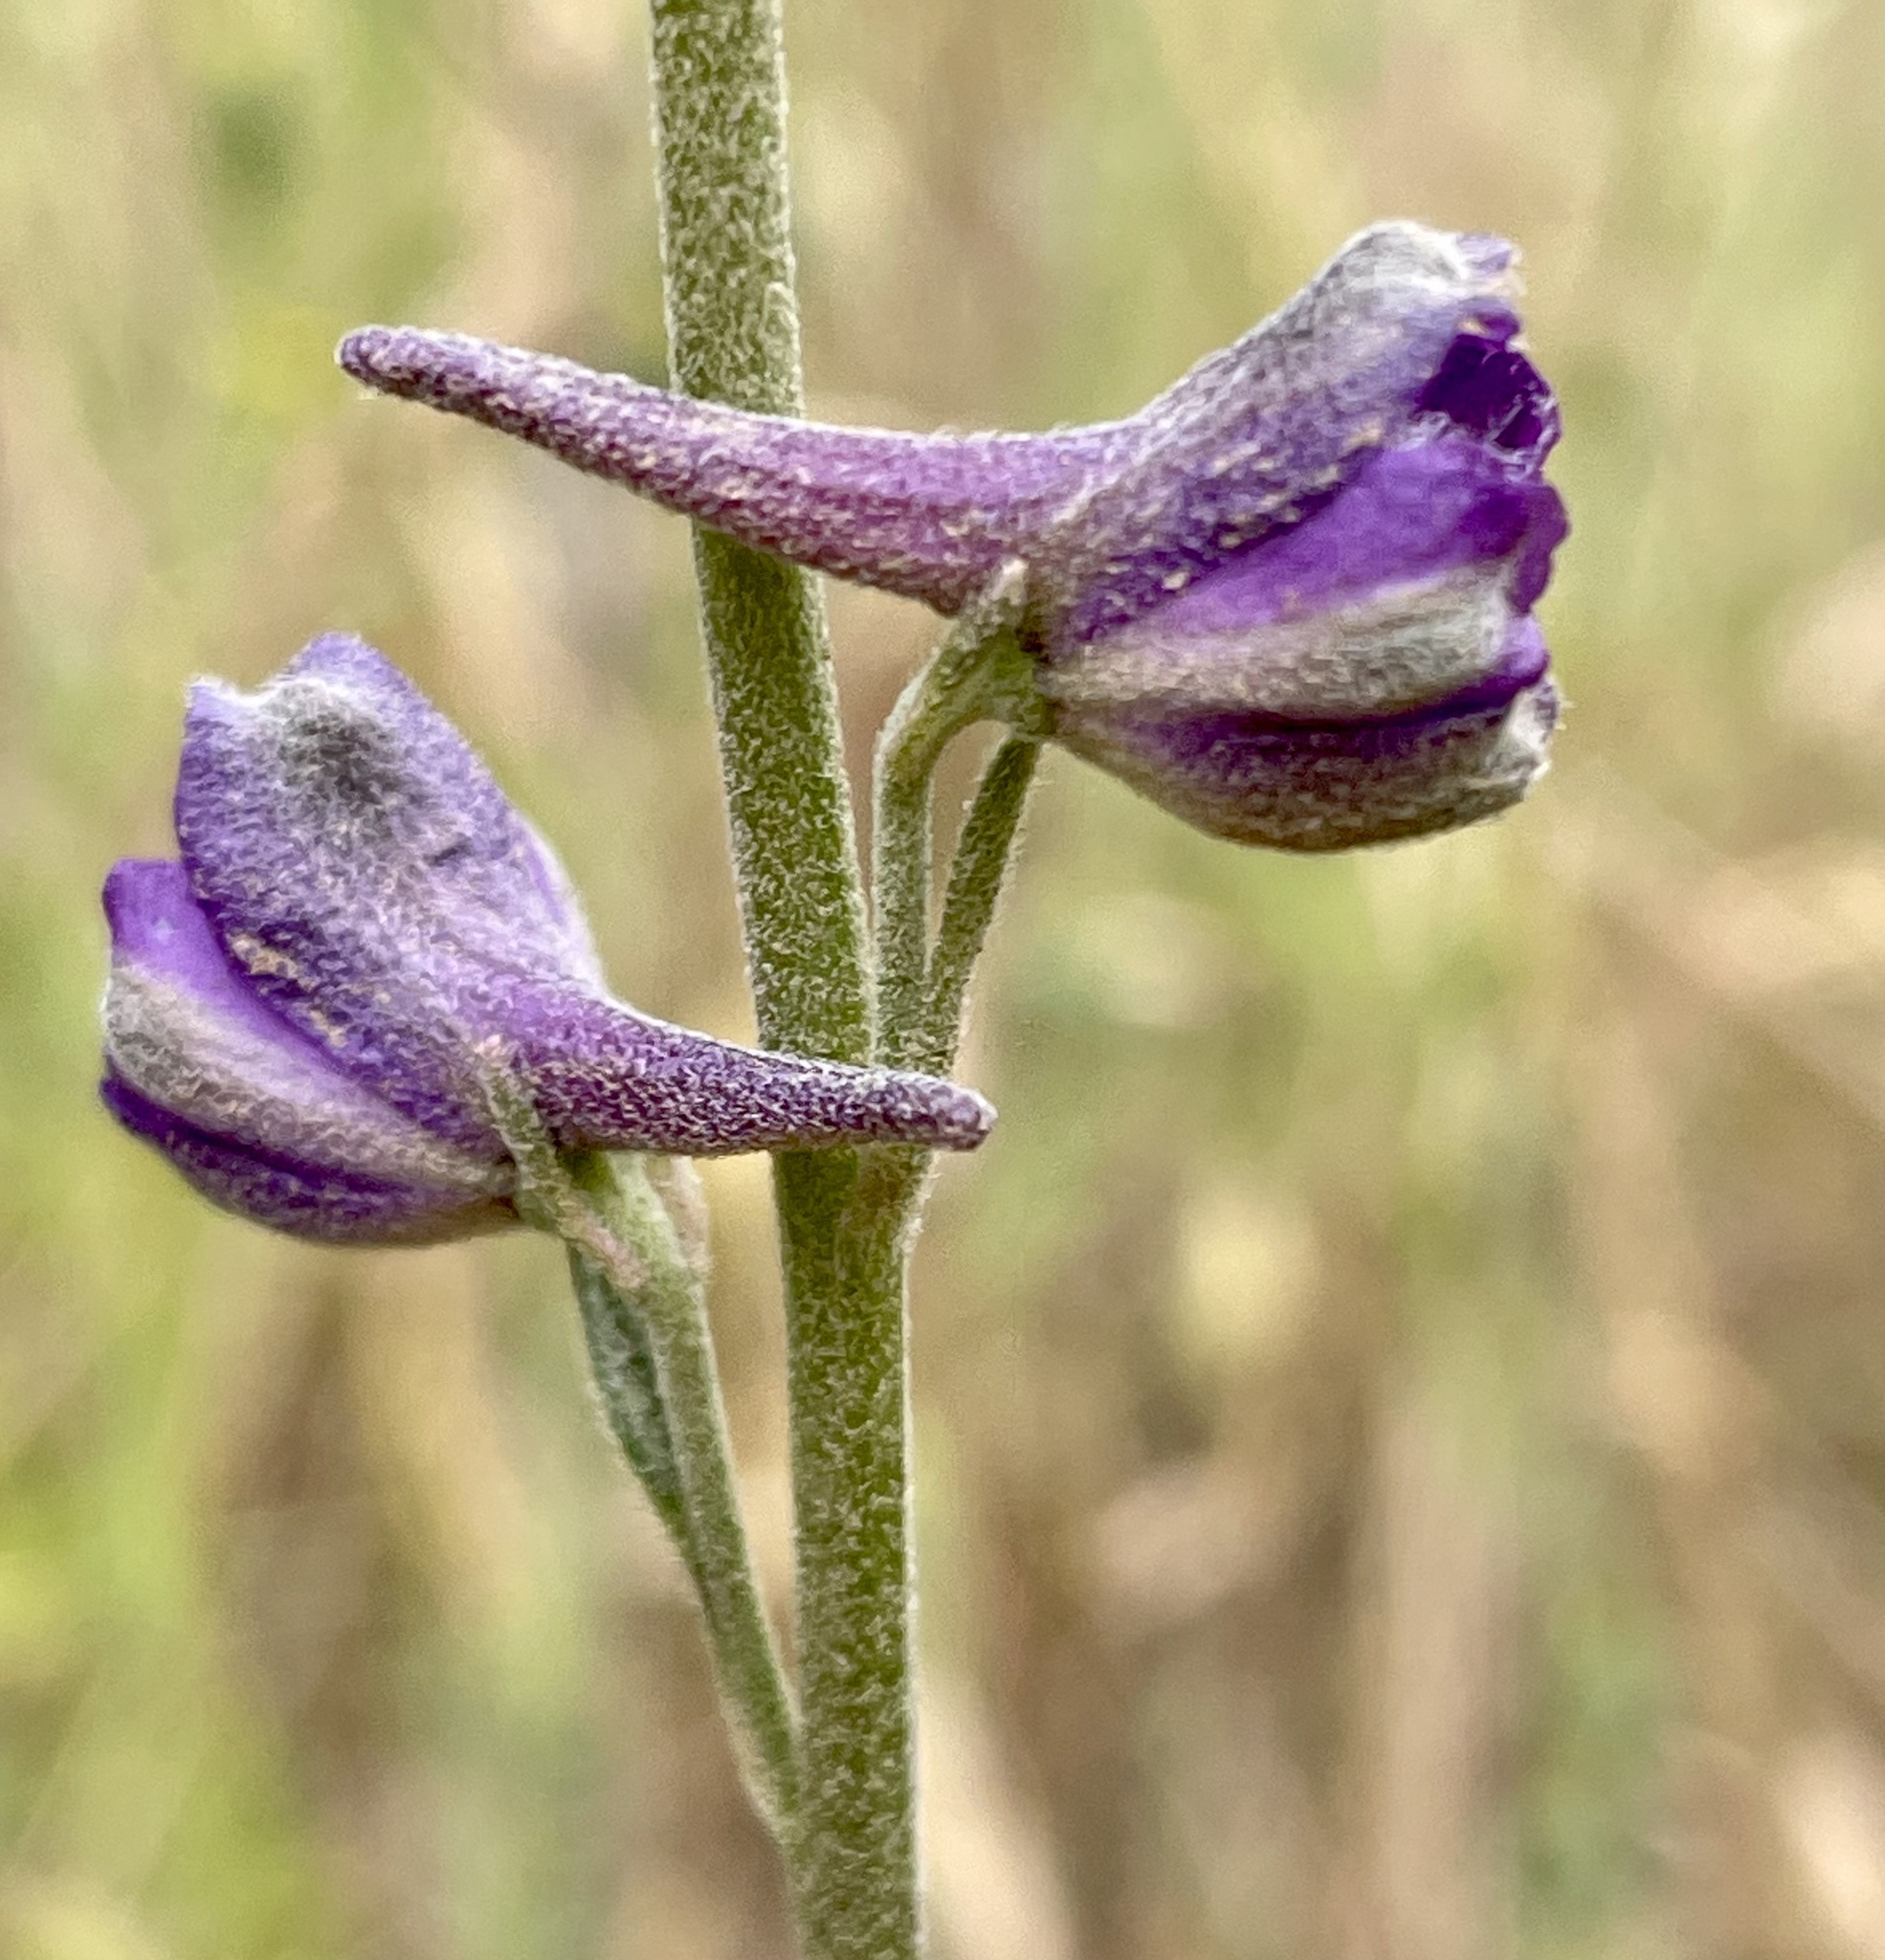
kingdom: Plantae
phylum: Tracheophyta
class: Magnoliopsida
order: Ranunculales
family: Ranunculaceae
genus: Delphinium
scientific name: Delphinium hesperium
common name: Western larkspur
